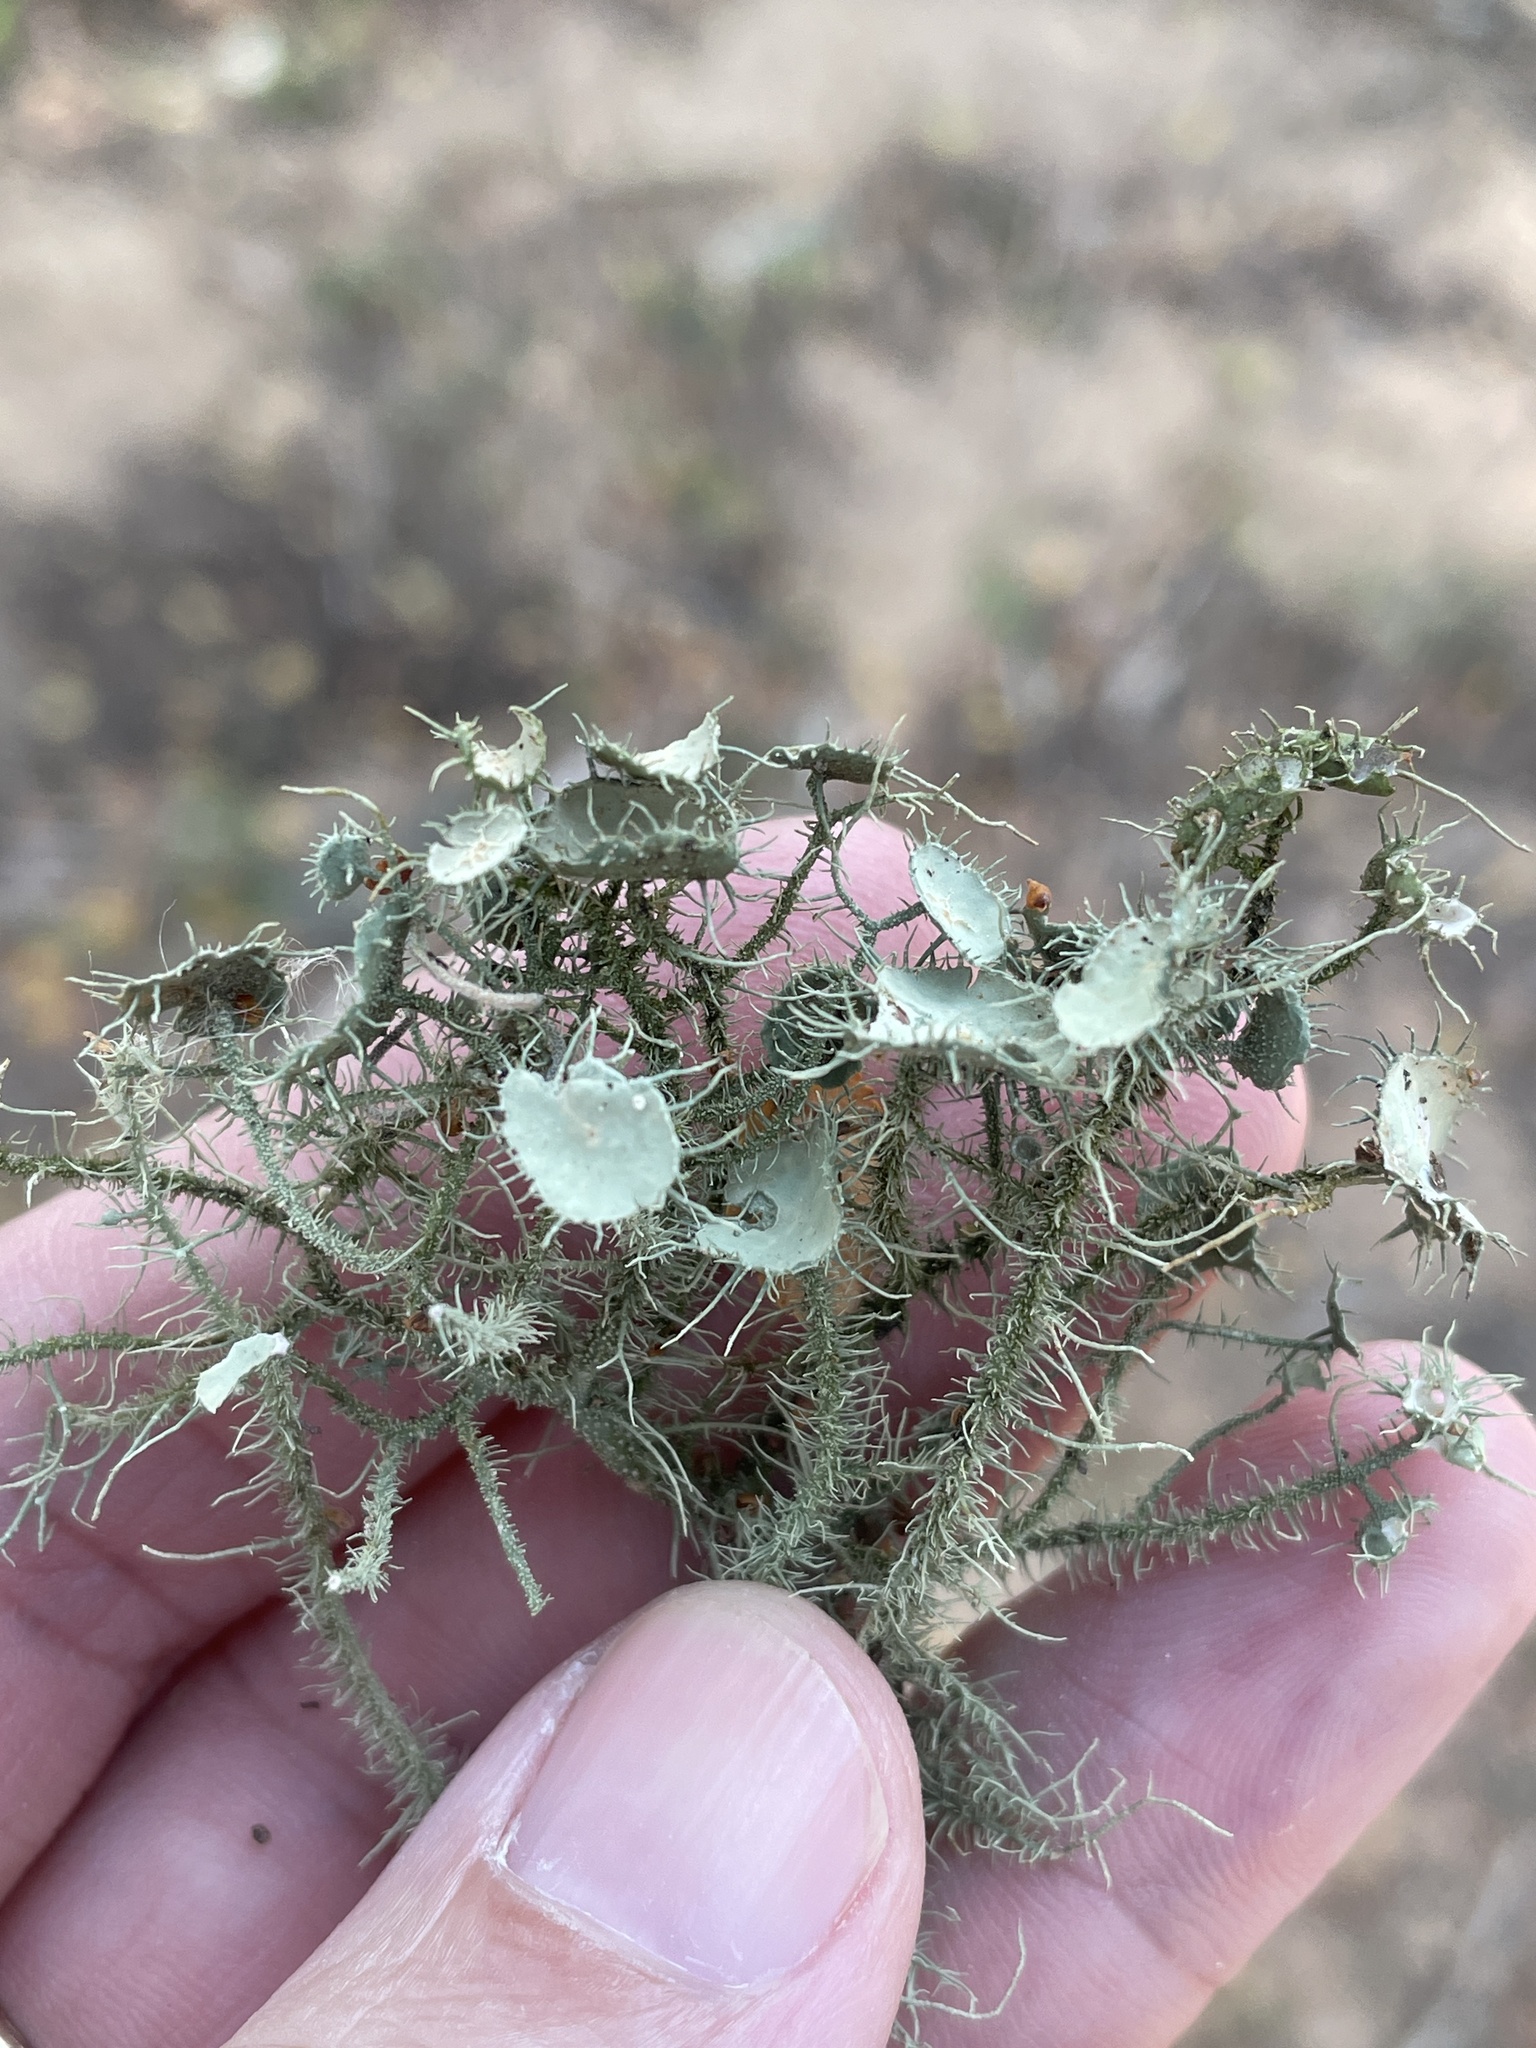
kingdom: Fungi
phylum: Ascomycota
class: Lecanoromycetes
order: Lecanorales
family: Parmeliaceae
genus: Usnea
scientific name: Usnea strigosa
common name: Bushy beard lichen
